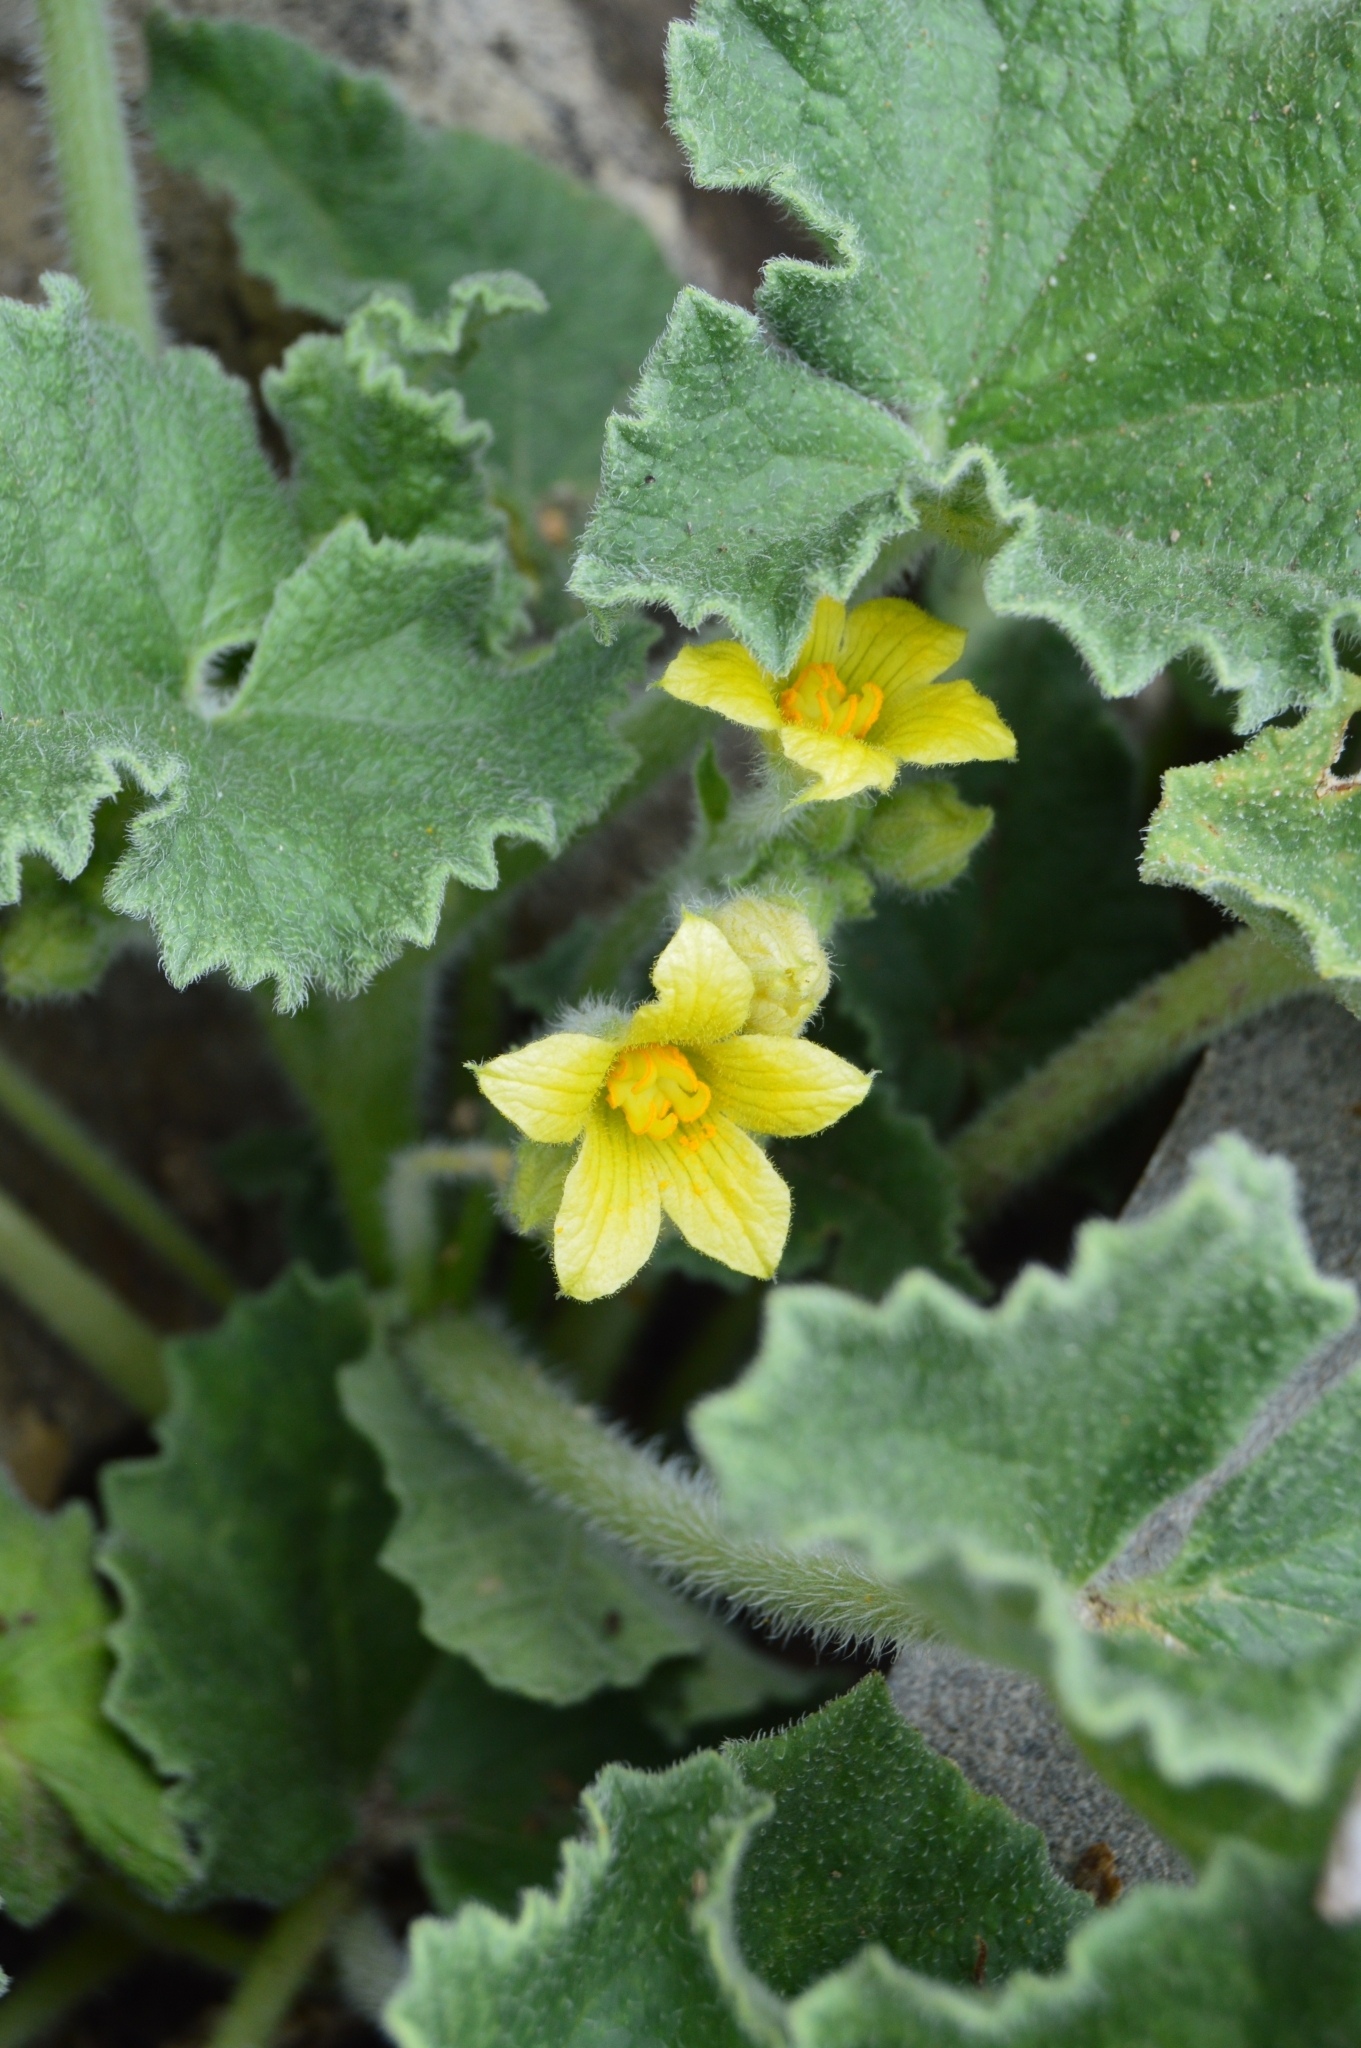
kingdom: Plantae
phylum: Tracheophyta
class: Magnoliopsida
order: Cucurbitales
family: Cucurbitaceae
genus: Ecballium
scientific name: Ecballium elaterium
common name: Squirting cucumber
